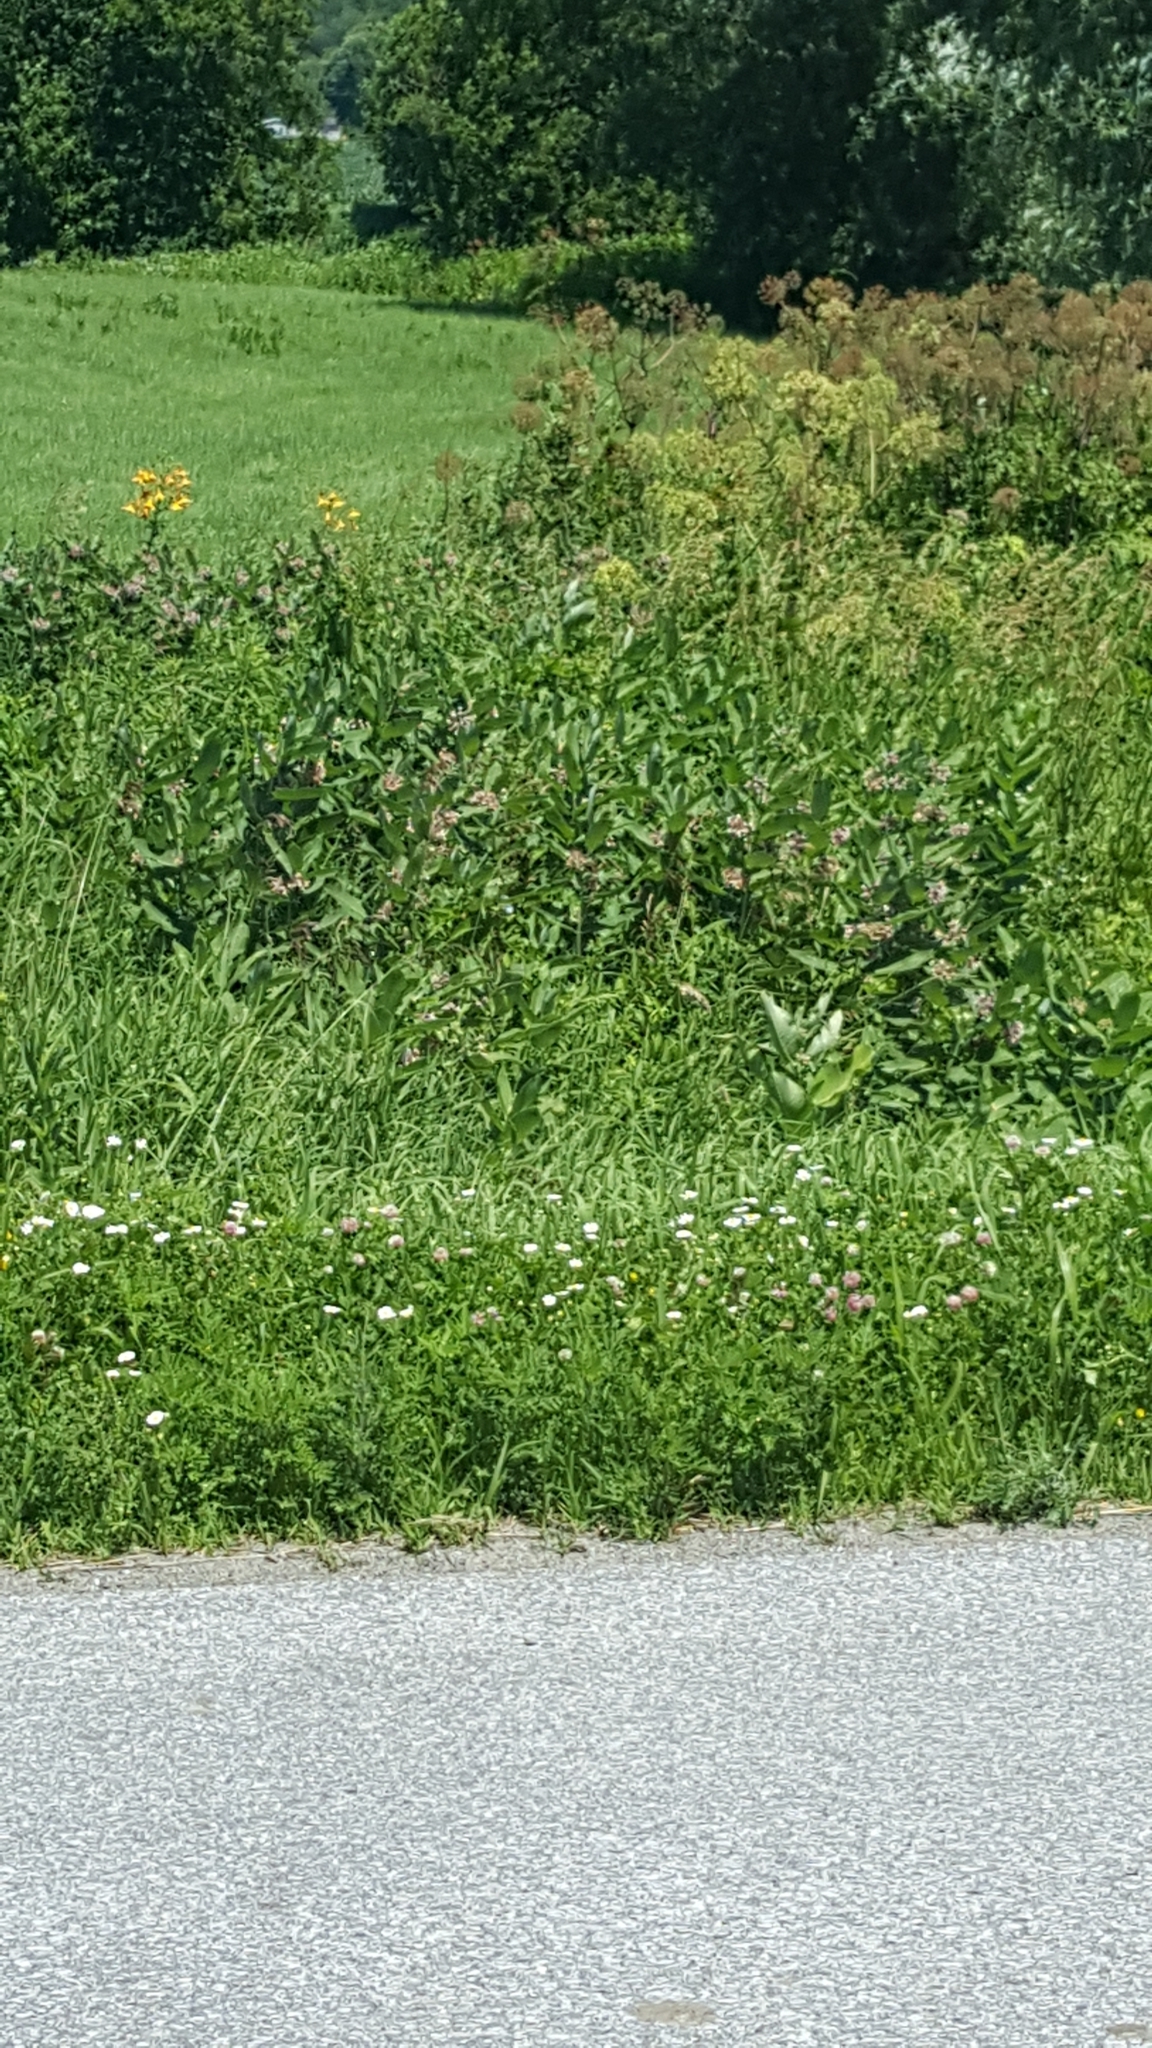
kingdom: Plantae
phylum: Tracheophyta
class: Magnoliopsida
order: Gentianales
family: Apocynaceae
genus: Asclepias
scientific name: Asclepias syriaca
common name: Common milkweed
